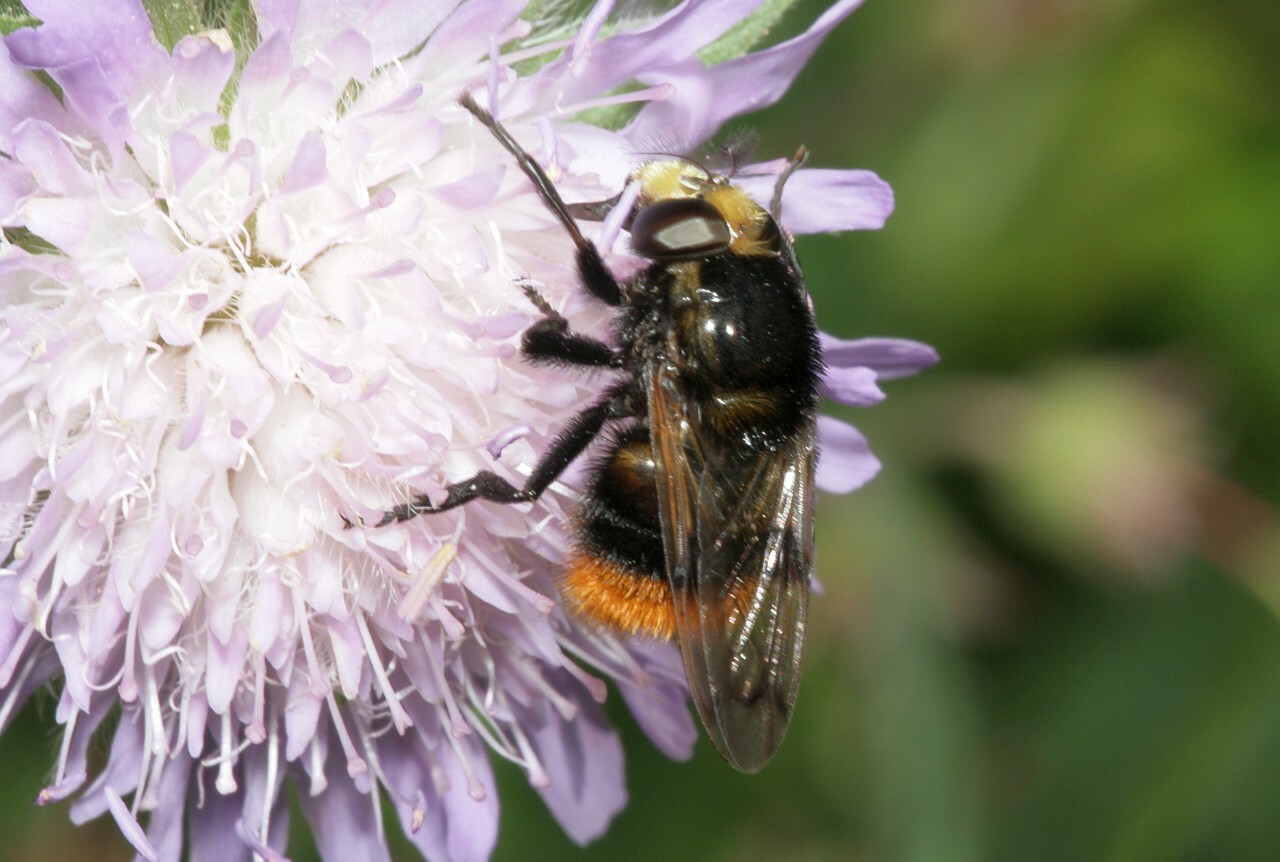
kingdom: Animalia
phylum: Arthropoda
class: Insecta
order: Diptera
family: Syrphidae
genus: Volucella
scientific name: Volucella bombylans
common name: Bumble bee hover fly
